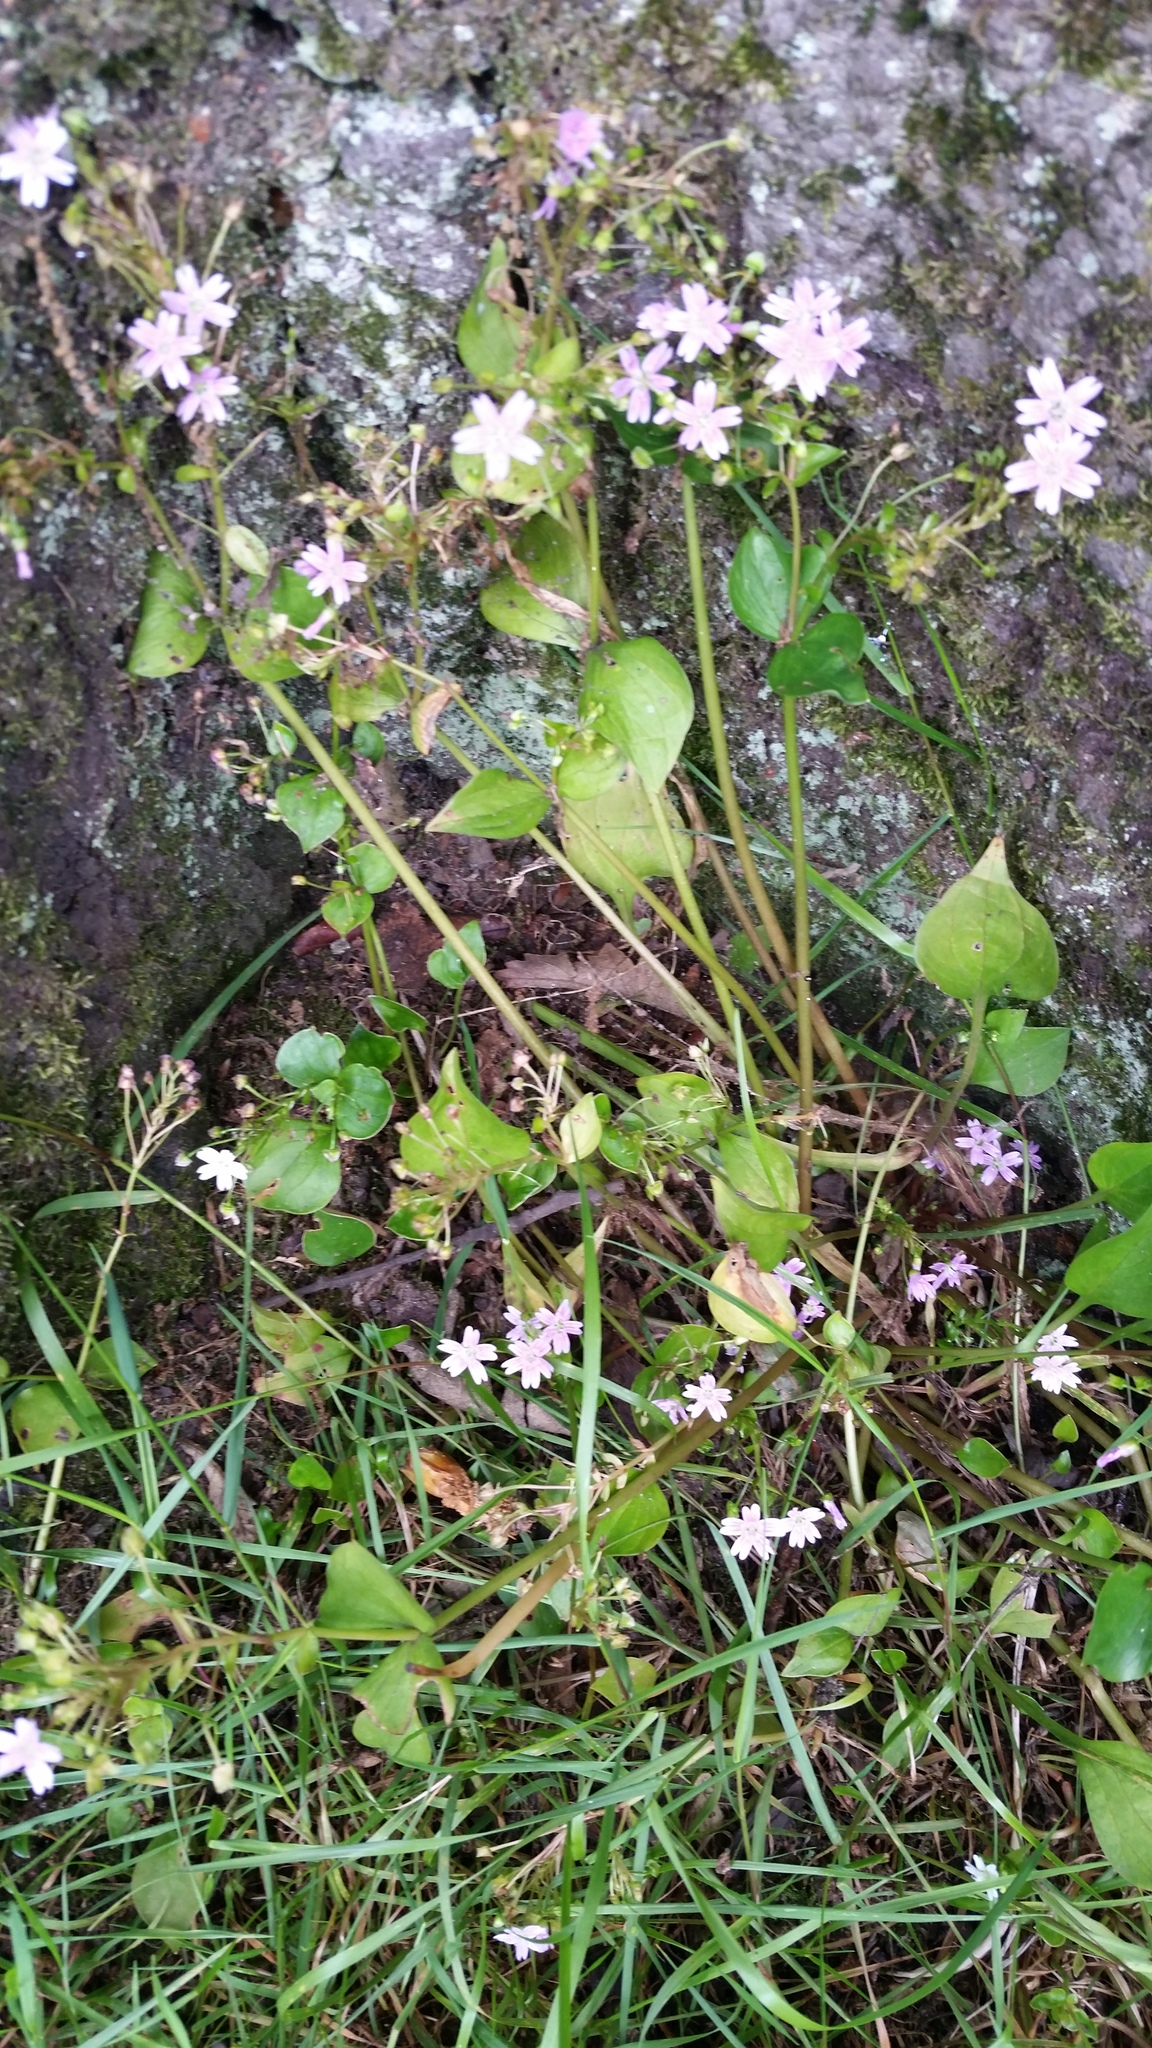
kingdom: Plantae
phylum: Tracheophyta
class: Magnoliopsida
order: Caryophyllales
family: Montiaceae
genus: Claytonia
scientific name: Claytonia sibirica
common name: Pink purslane
